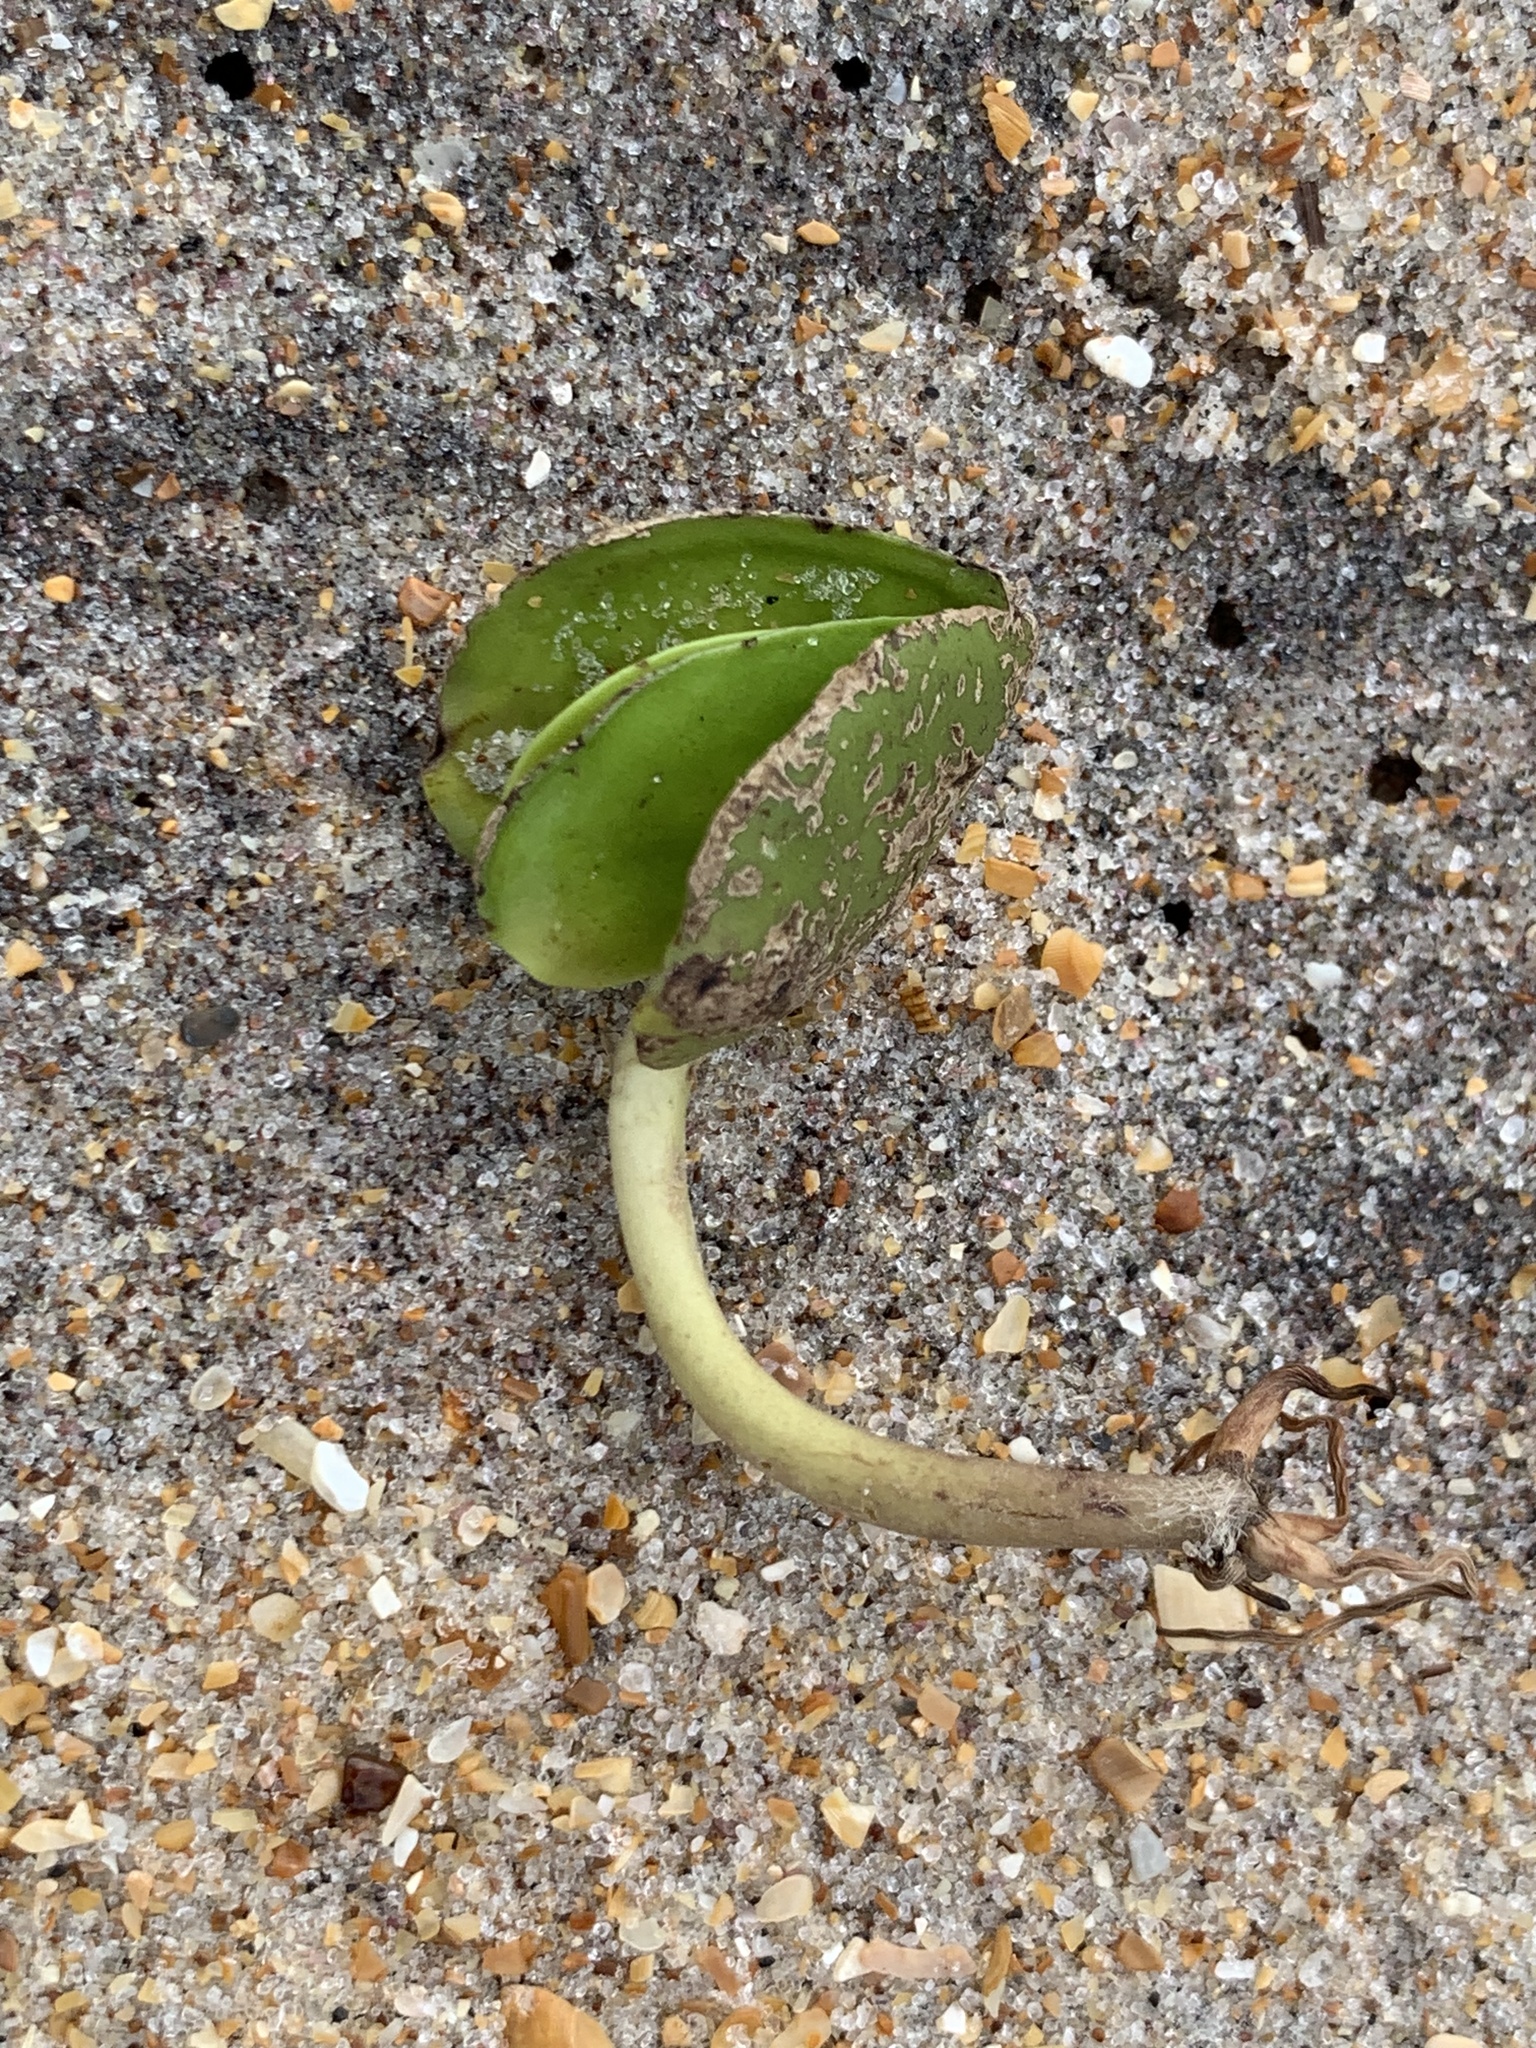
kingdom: Plantae
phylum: Tracheophyta
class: Magnoliopsida
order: Lamiales
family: Acanthaceae
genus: Avicennia
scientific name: Avicennia germinans
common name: Black mangrove
